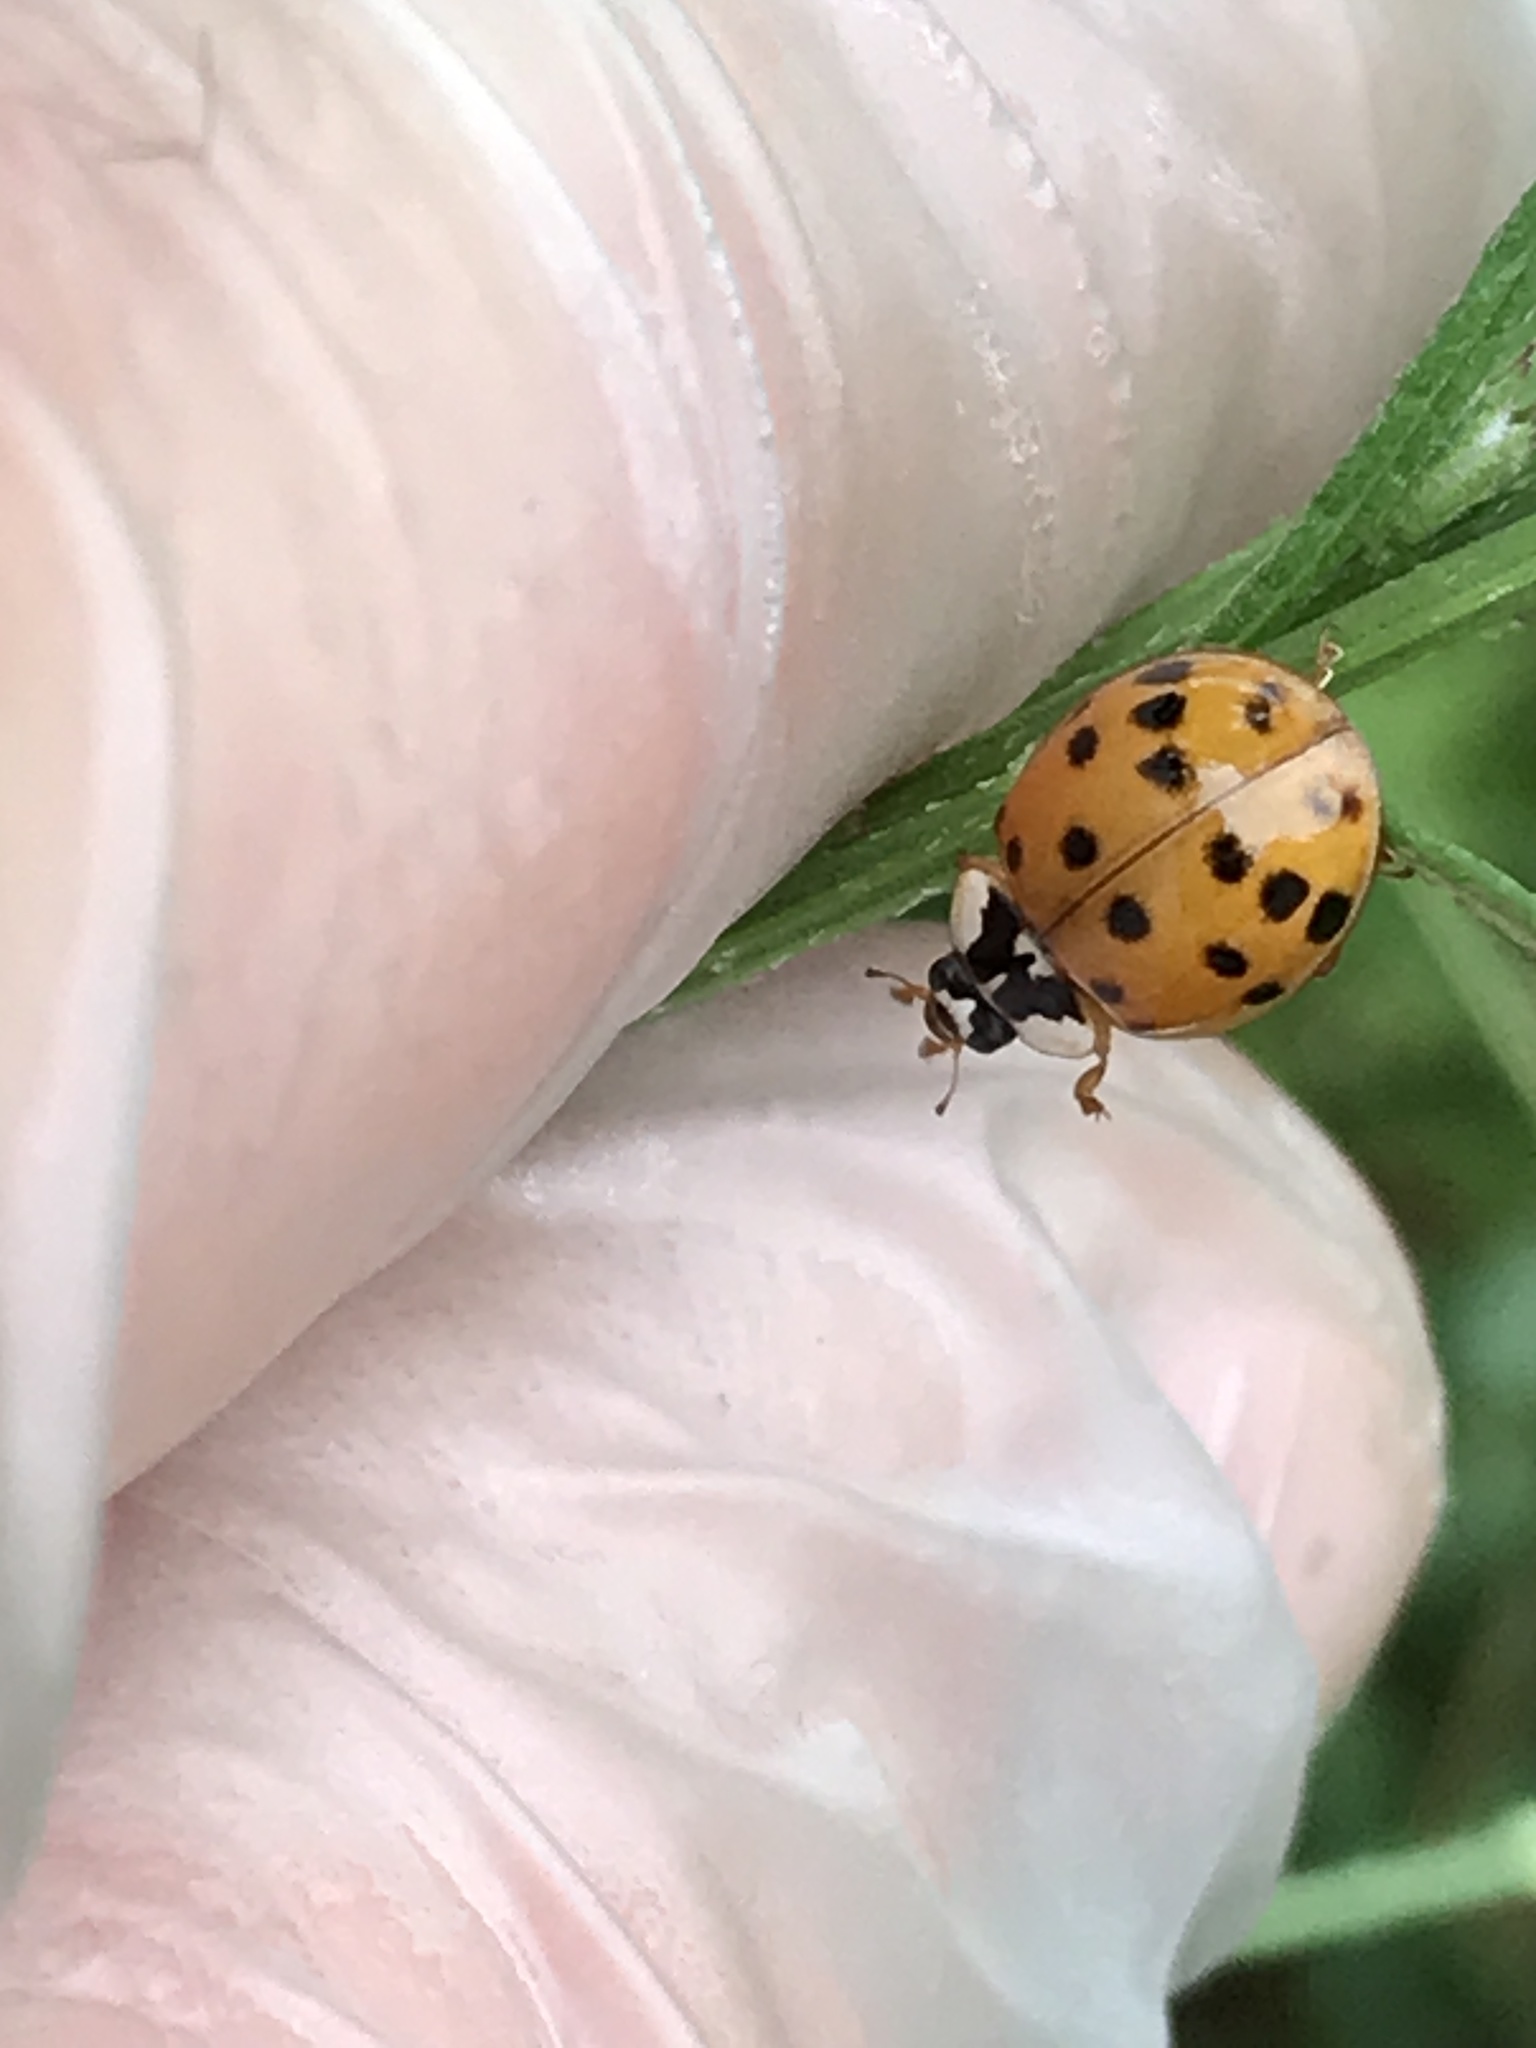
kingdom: Animalia
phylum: Arthropoda
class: Insecta
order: Coleoptera
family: Coccinellidae
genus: Harmonia
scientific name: Harmonia axyridis
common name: Harlequin ladybird
